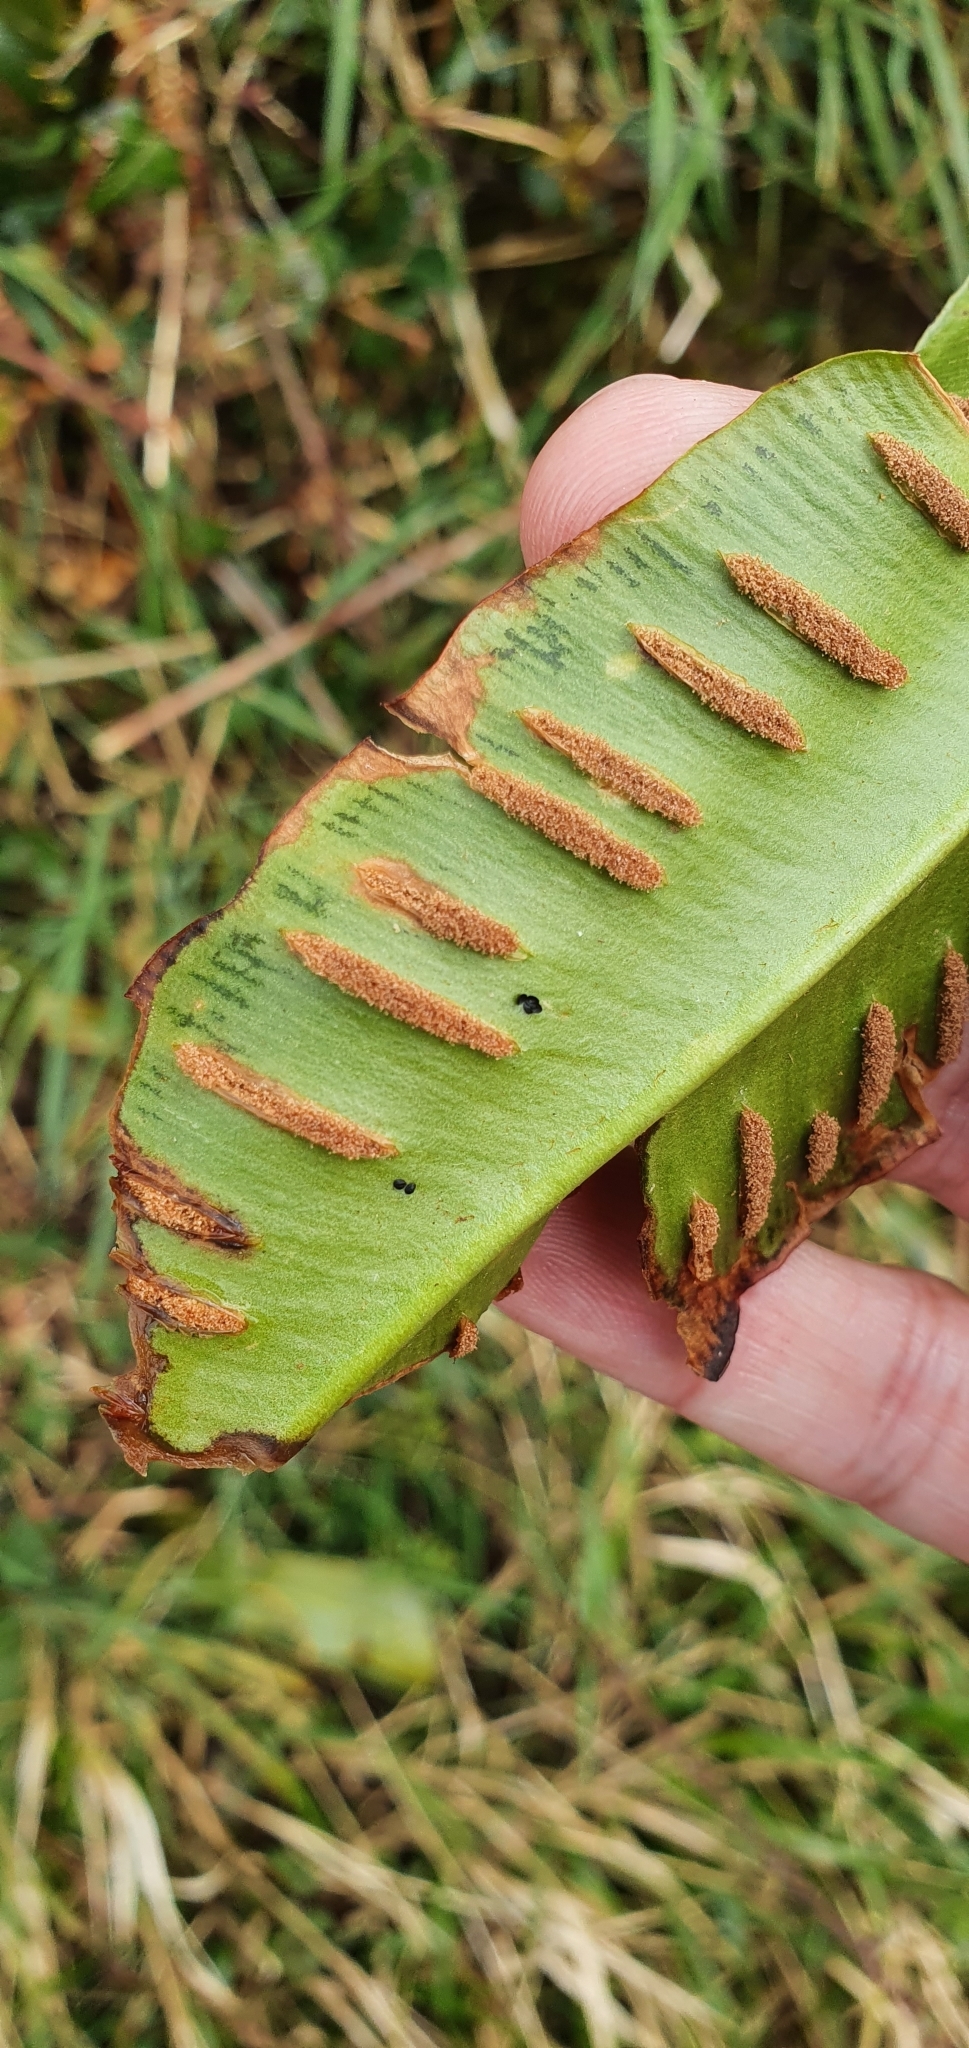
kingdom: Plantae
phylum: Tracheophyta
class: Polypodiopsida
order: Polypodiales
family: Aspleniaceae
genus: Asplenium
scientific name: Asplenium scolopendrium
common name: Hart's-tongue fern
